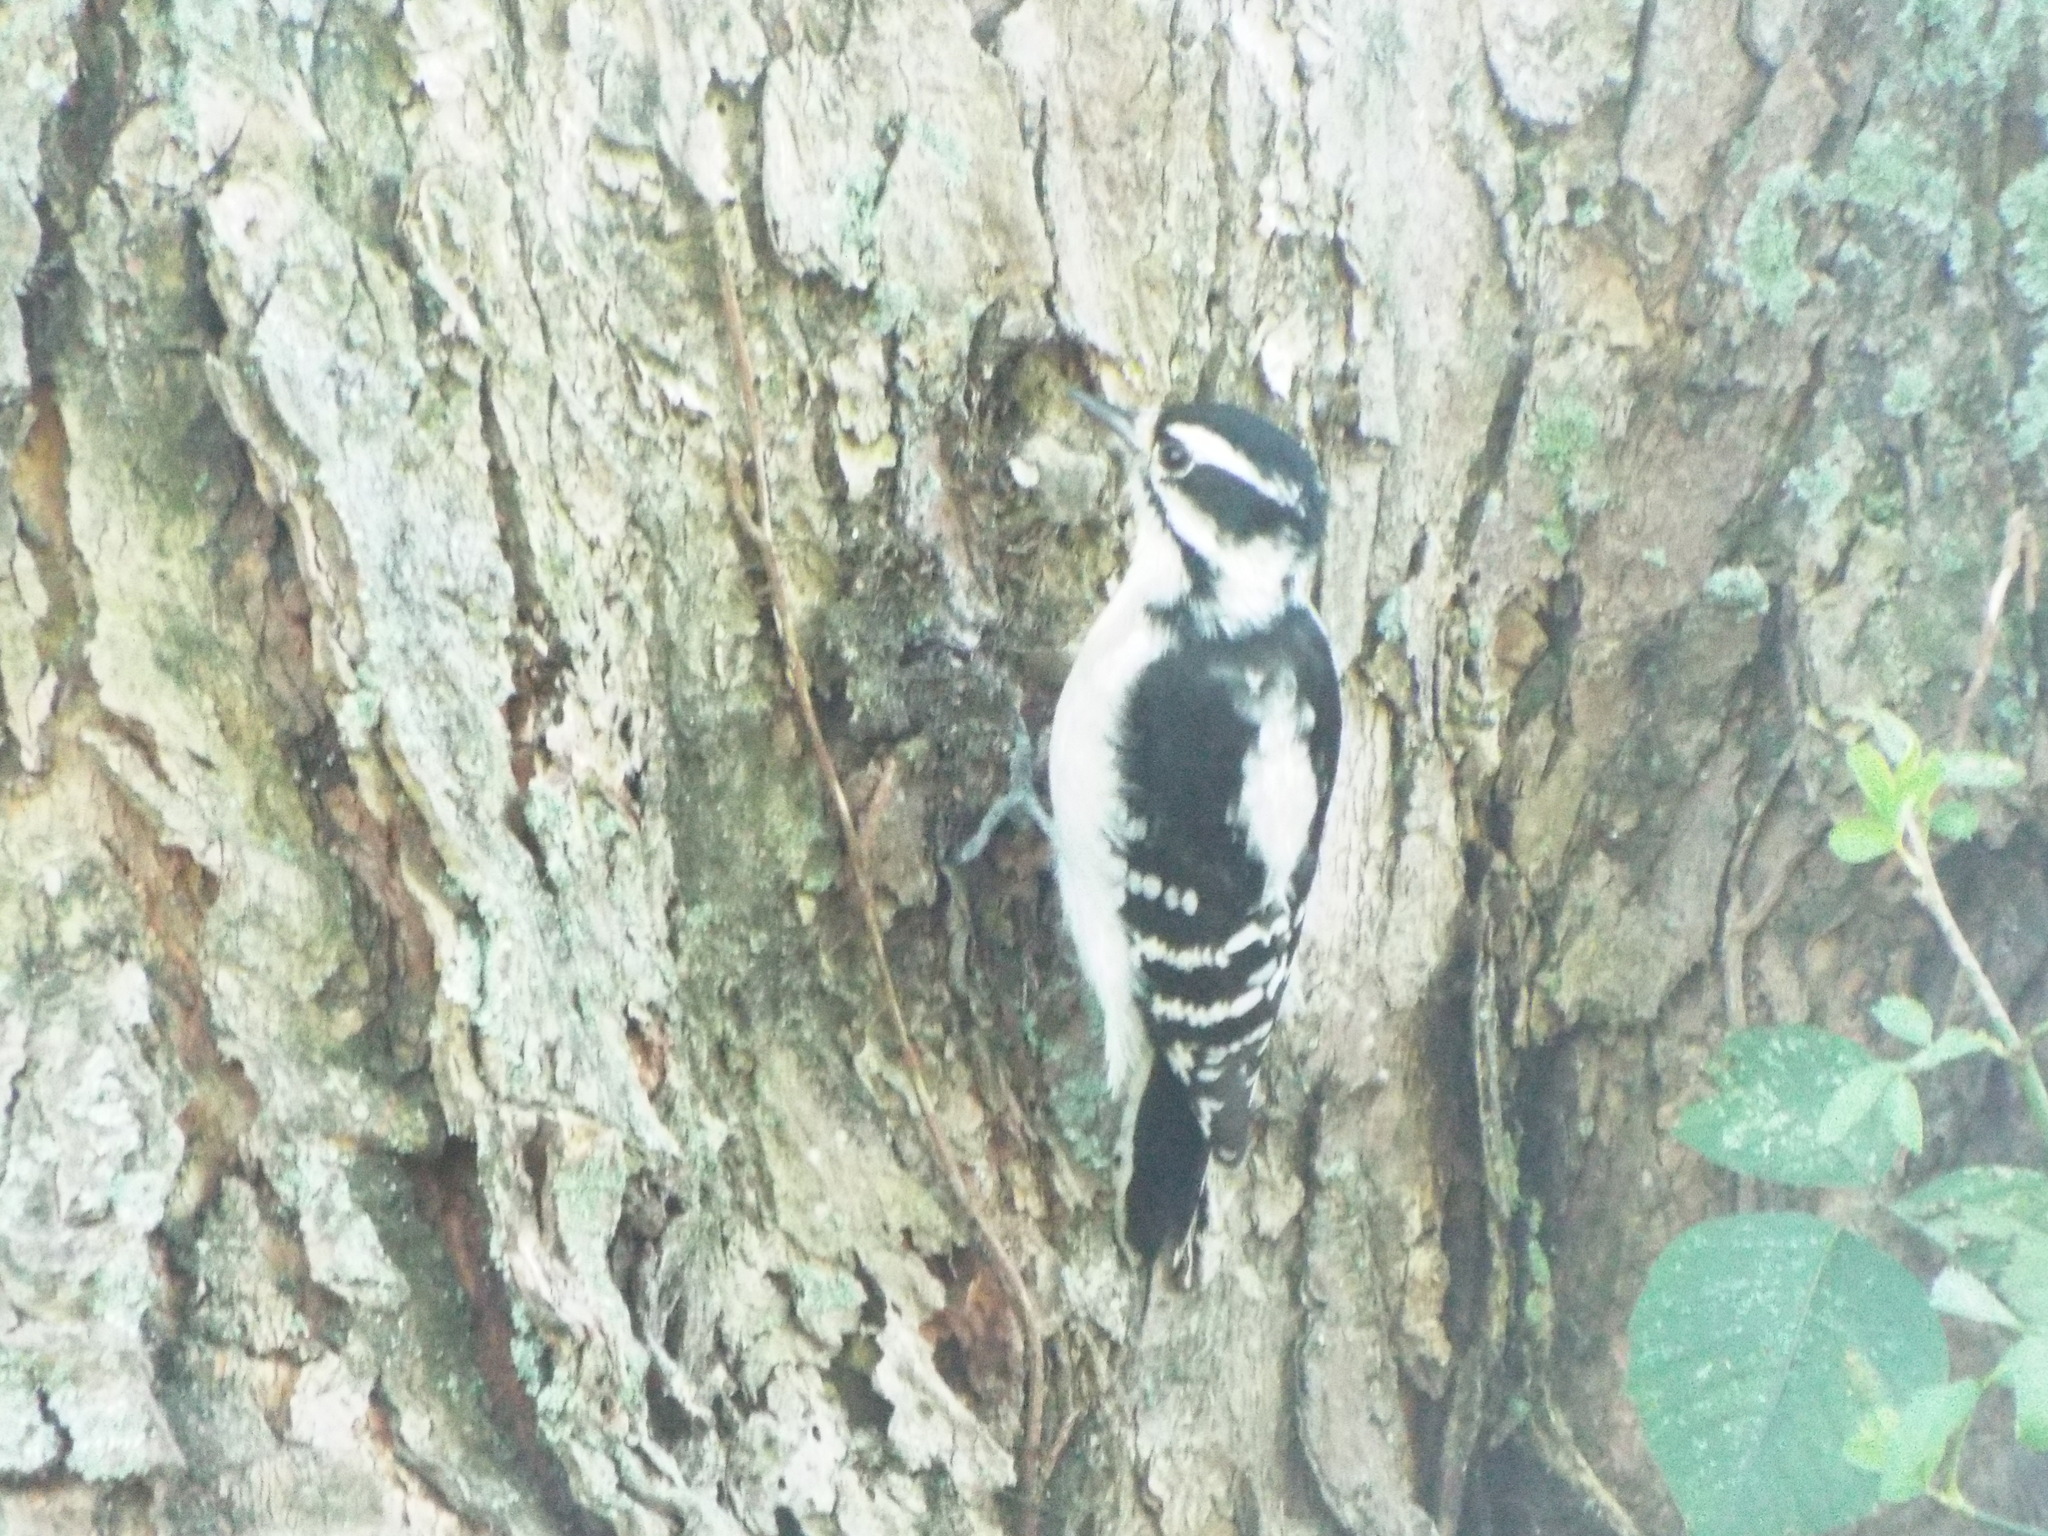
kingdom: Animalia
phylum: Chordata
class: Aves
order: Piciformes
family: Picidae
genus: Dryobates
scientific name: Dryobates pubescens
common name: Downy woodpecker
